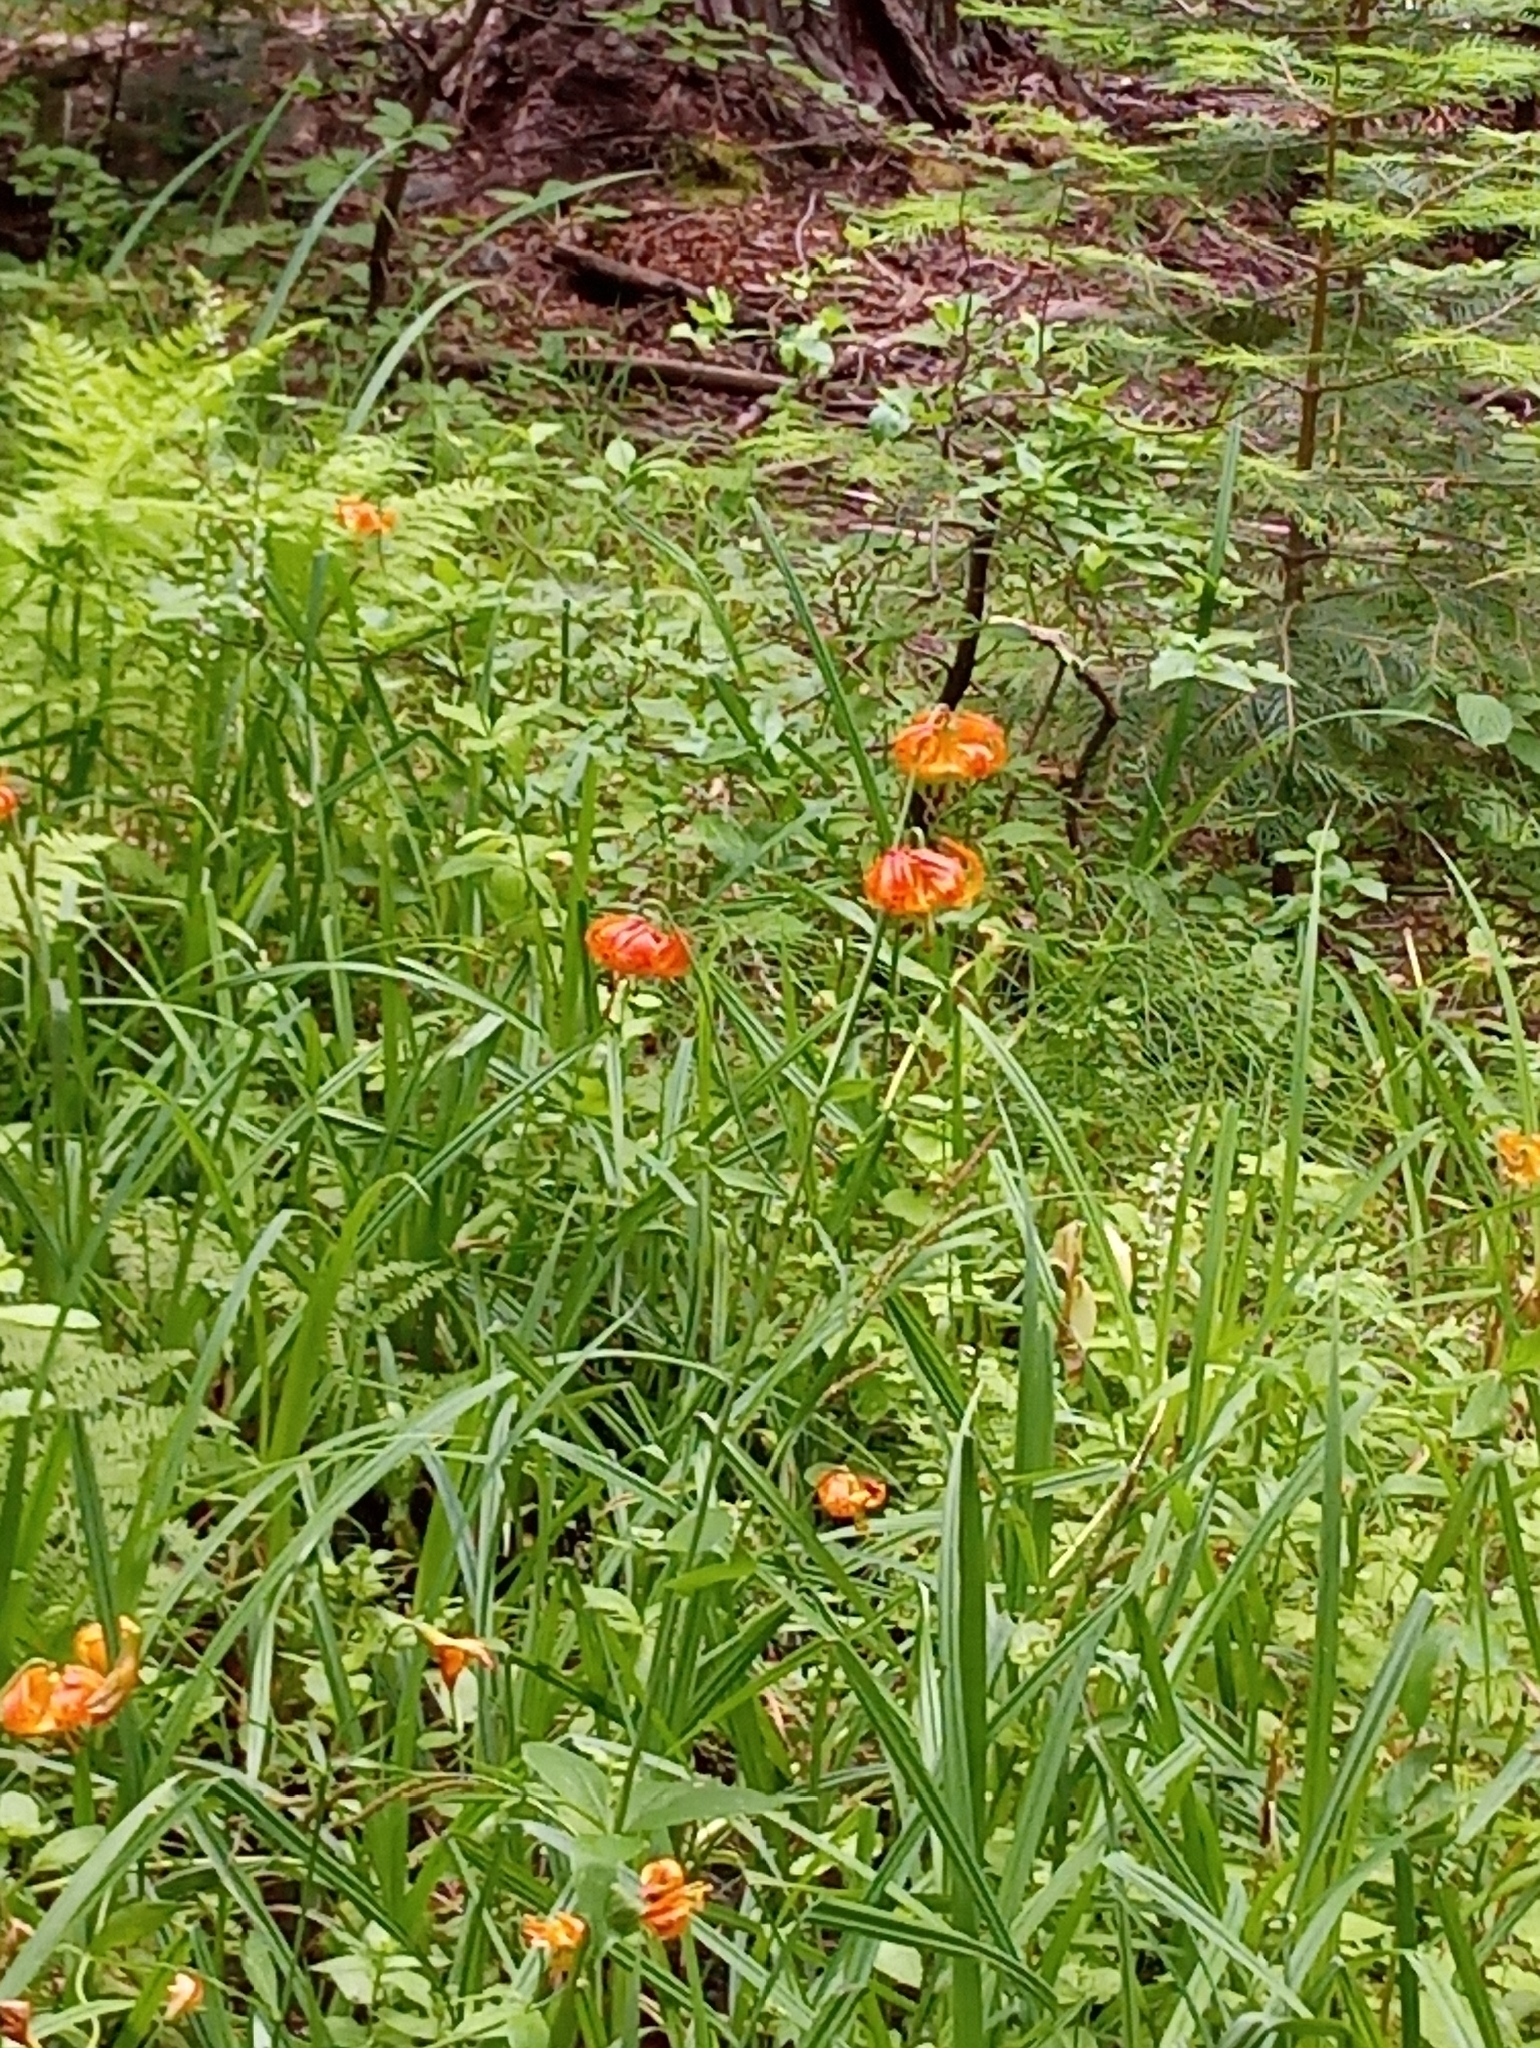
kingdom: Plantae
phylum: Tracheophyta
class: Liliopsida
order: Liliales
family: Liliaceae
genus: Lilium
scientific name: Lilium pardalinum
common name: Panther lily
